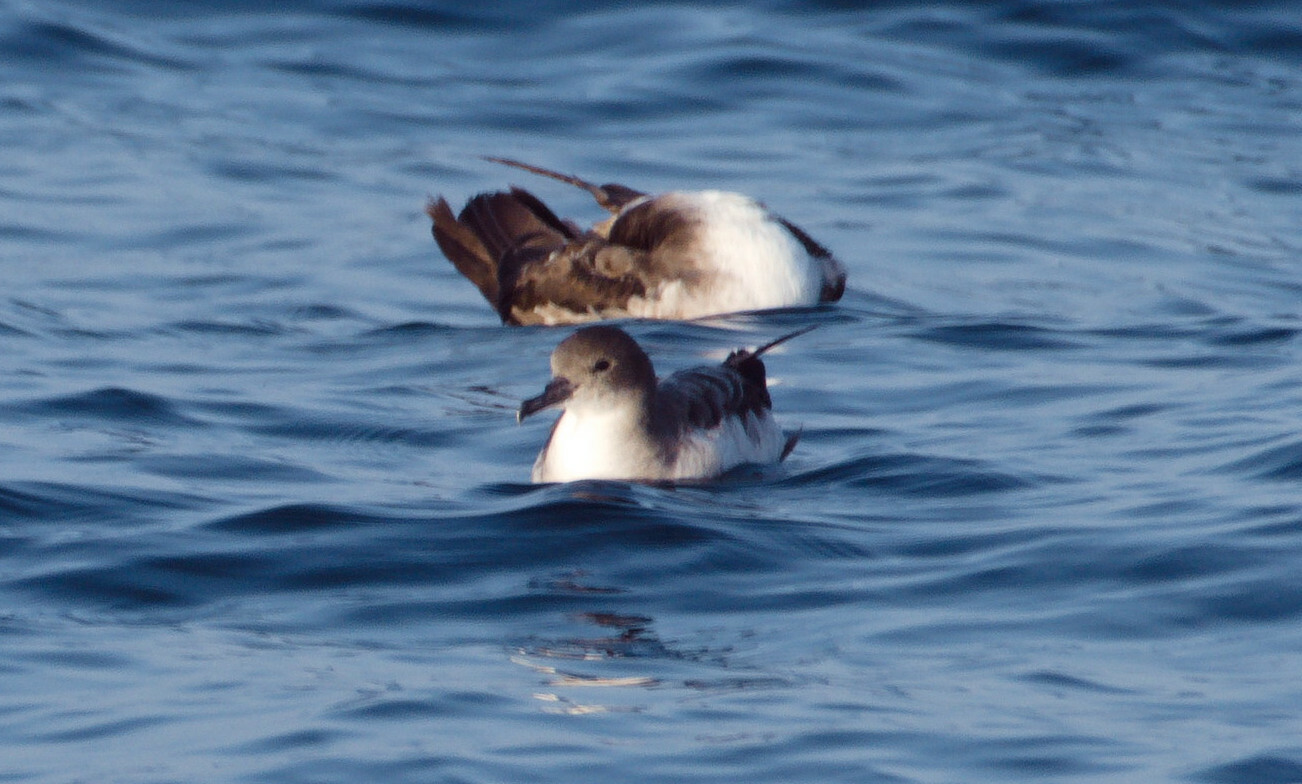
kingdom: Animalia
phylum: Chordata
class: Aves
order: Procellariiformes
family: Procellariidae
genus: Puffinus
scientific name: Puffinus pacificus
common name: Wedge-tailed shearwater
